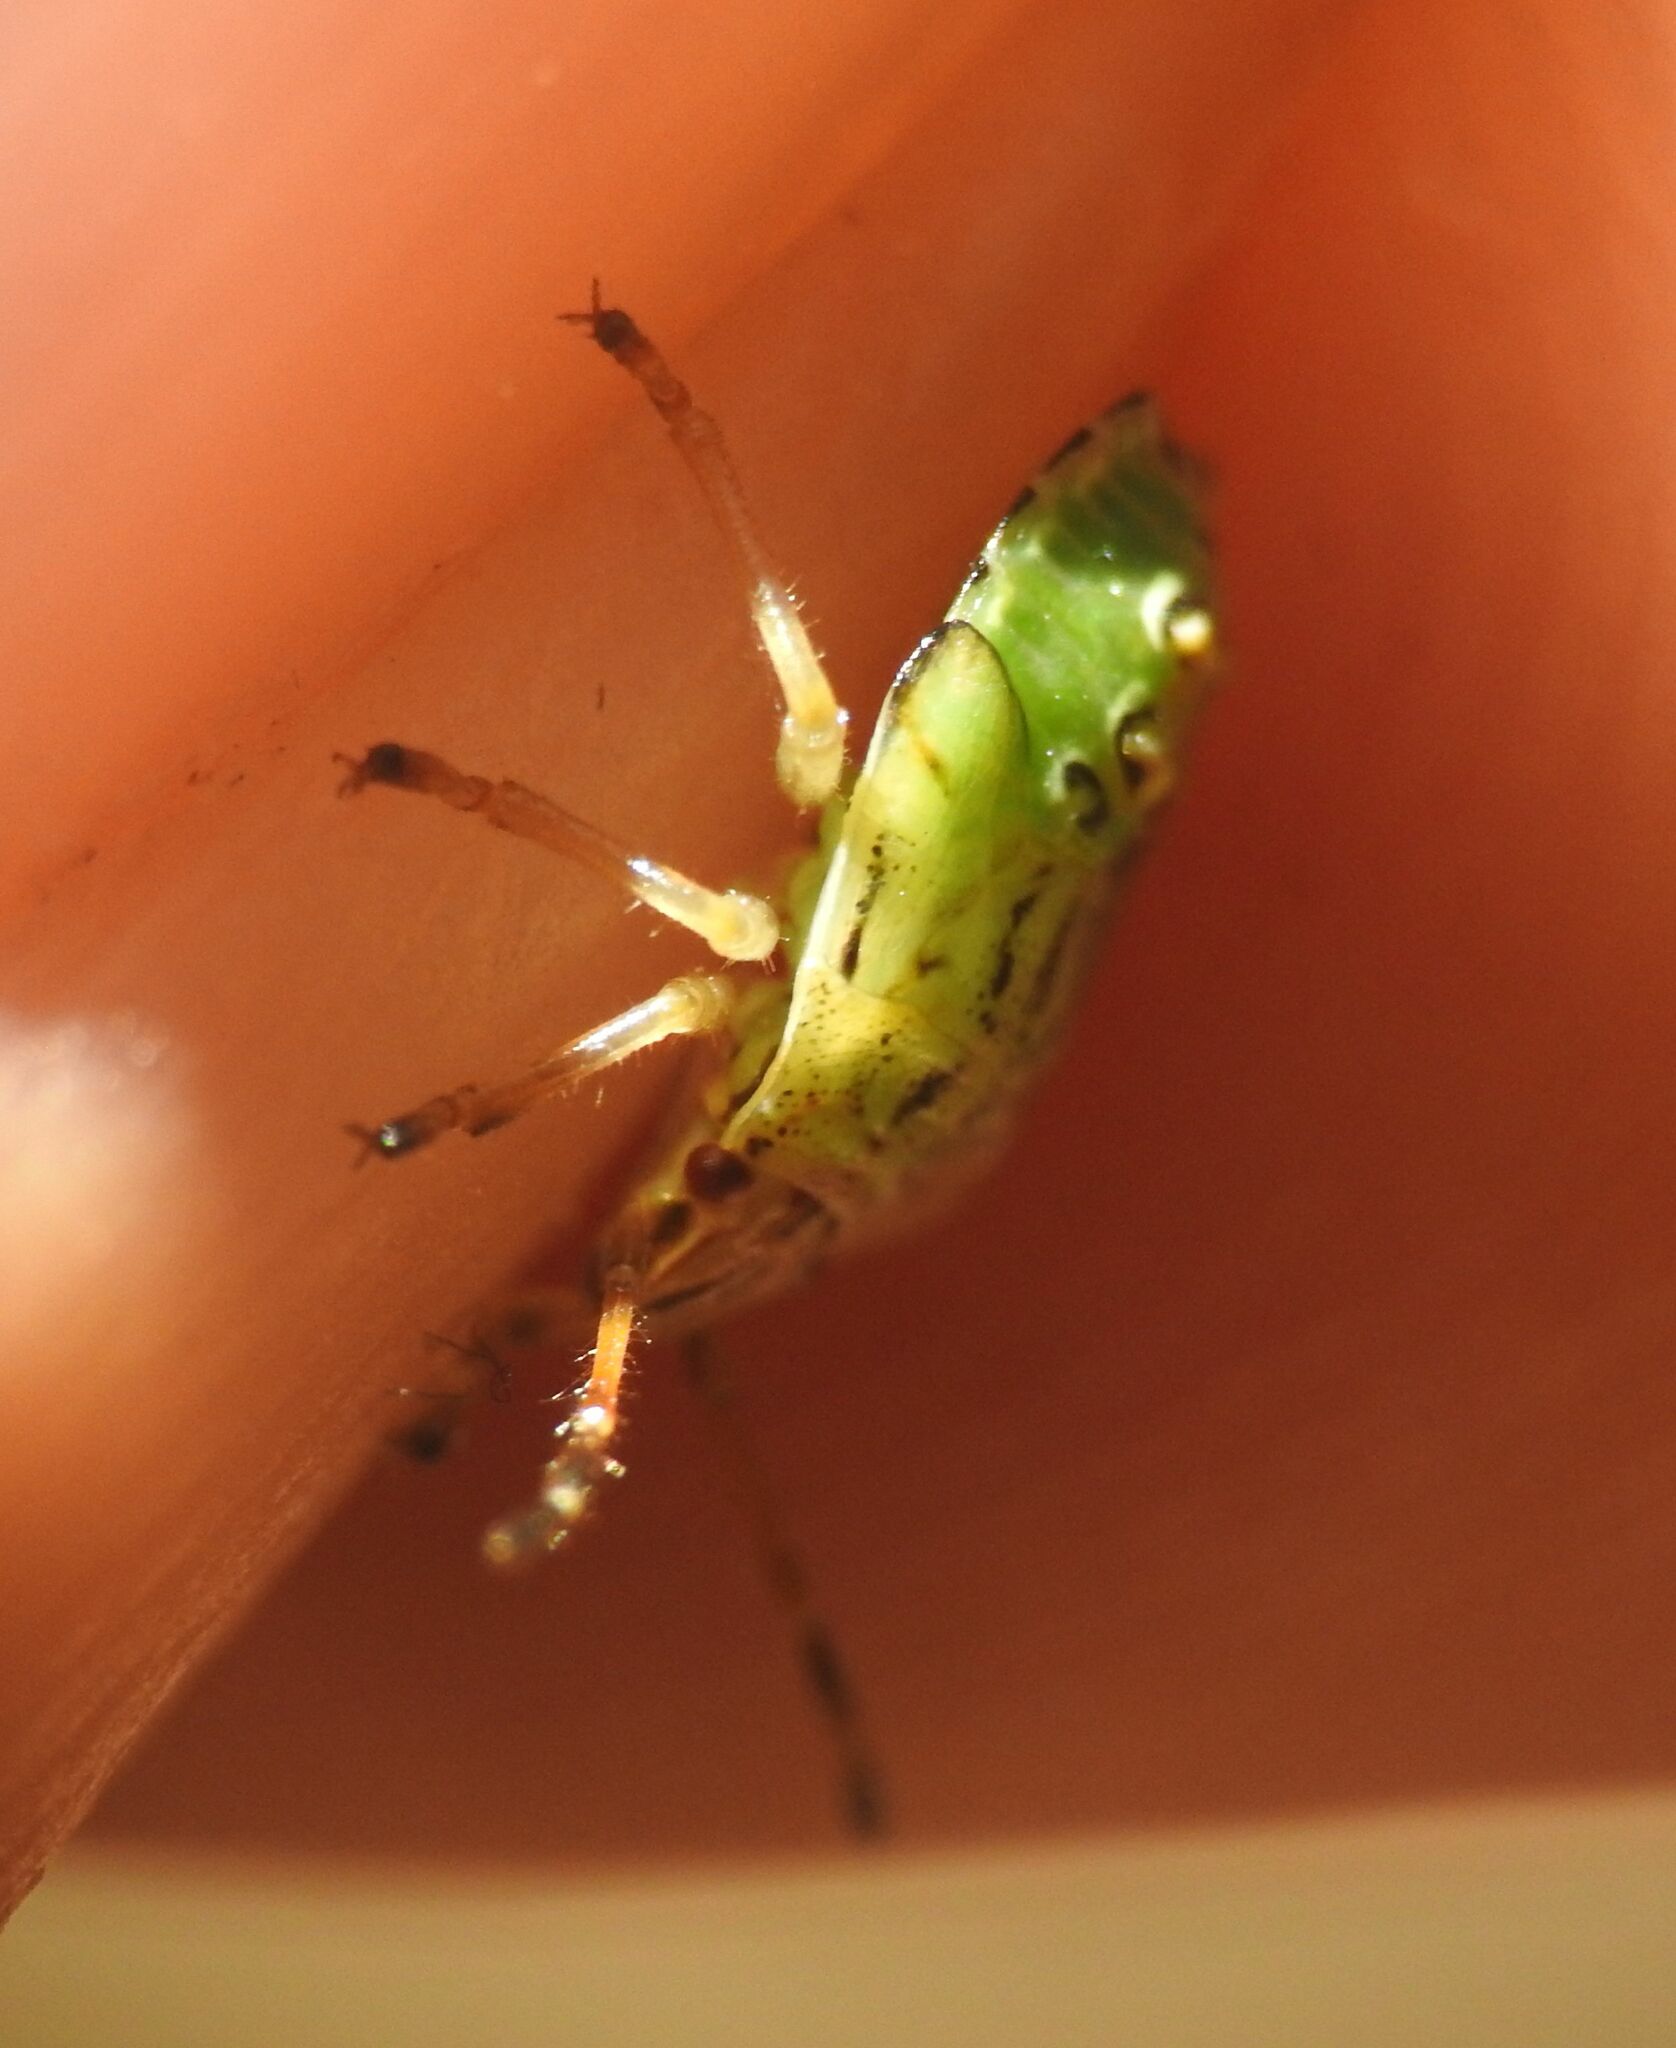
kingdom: Animalia
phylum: Arthropoda
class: Insecta
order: Hemiptera
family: Acanthosomatidae
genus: Elasmucha
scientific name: Elasmucha grisea
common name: Parent bug
